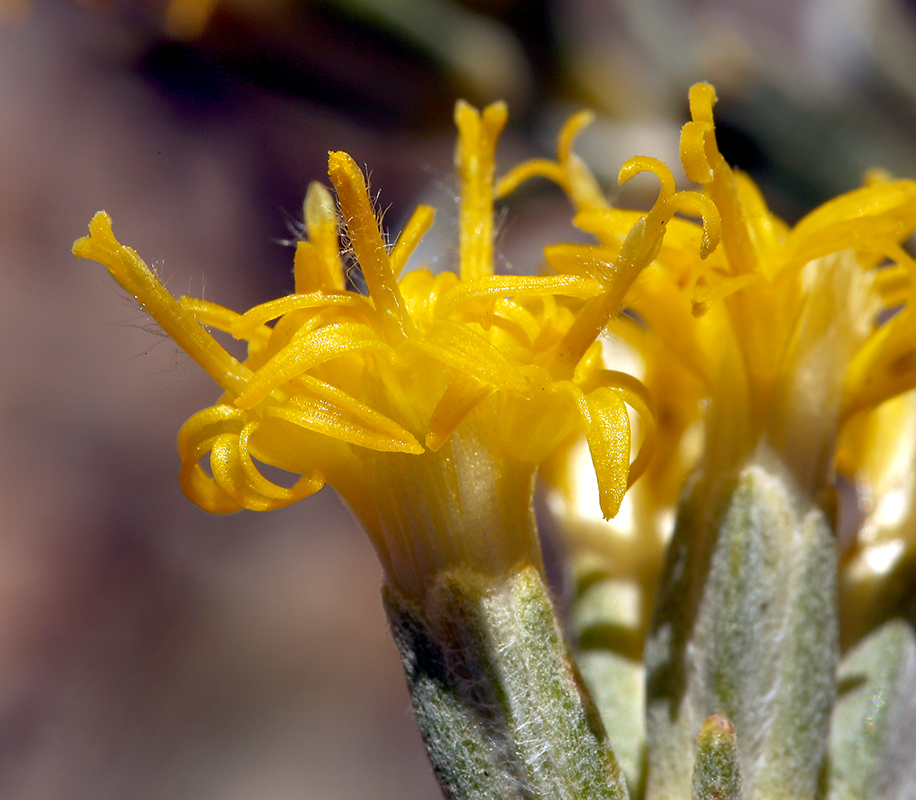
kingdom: Plantae
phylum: Tracheophyta
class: Magnoliopsida
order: Asterales
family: Asteraceae
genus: Tetradymia
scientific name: Tetradymia canescens
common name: Spineless horsebrush
